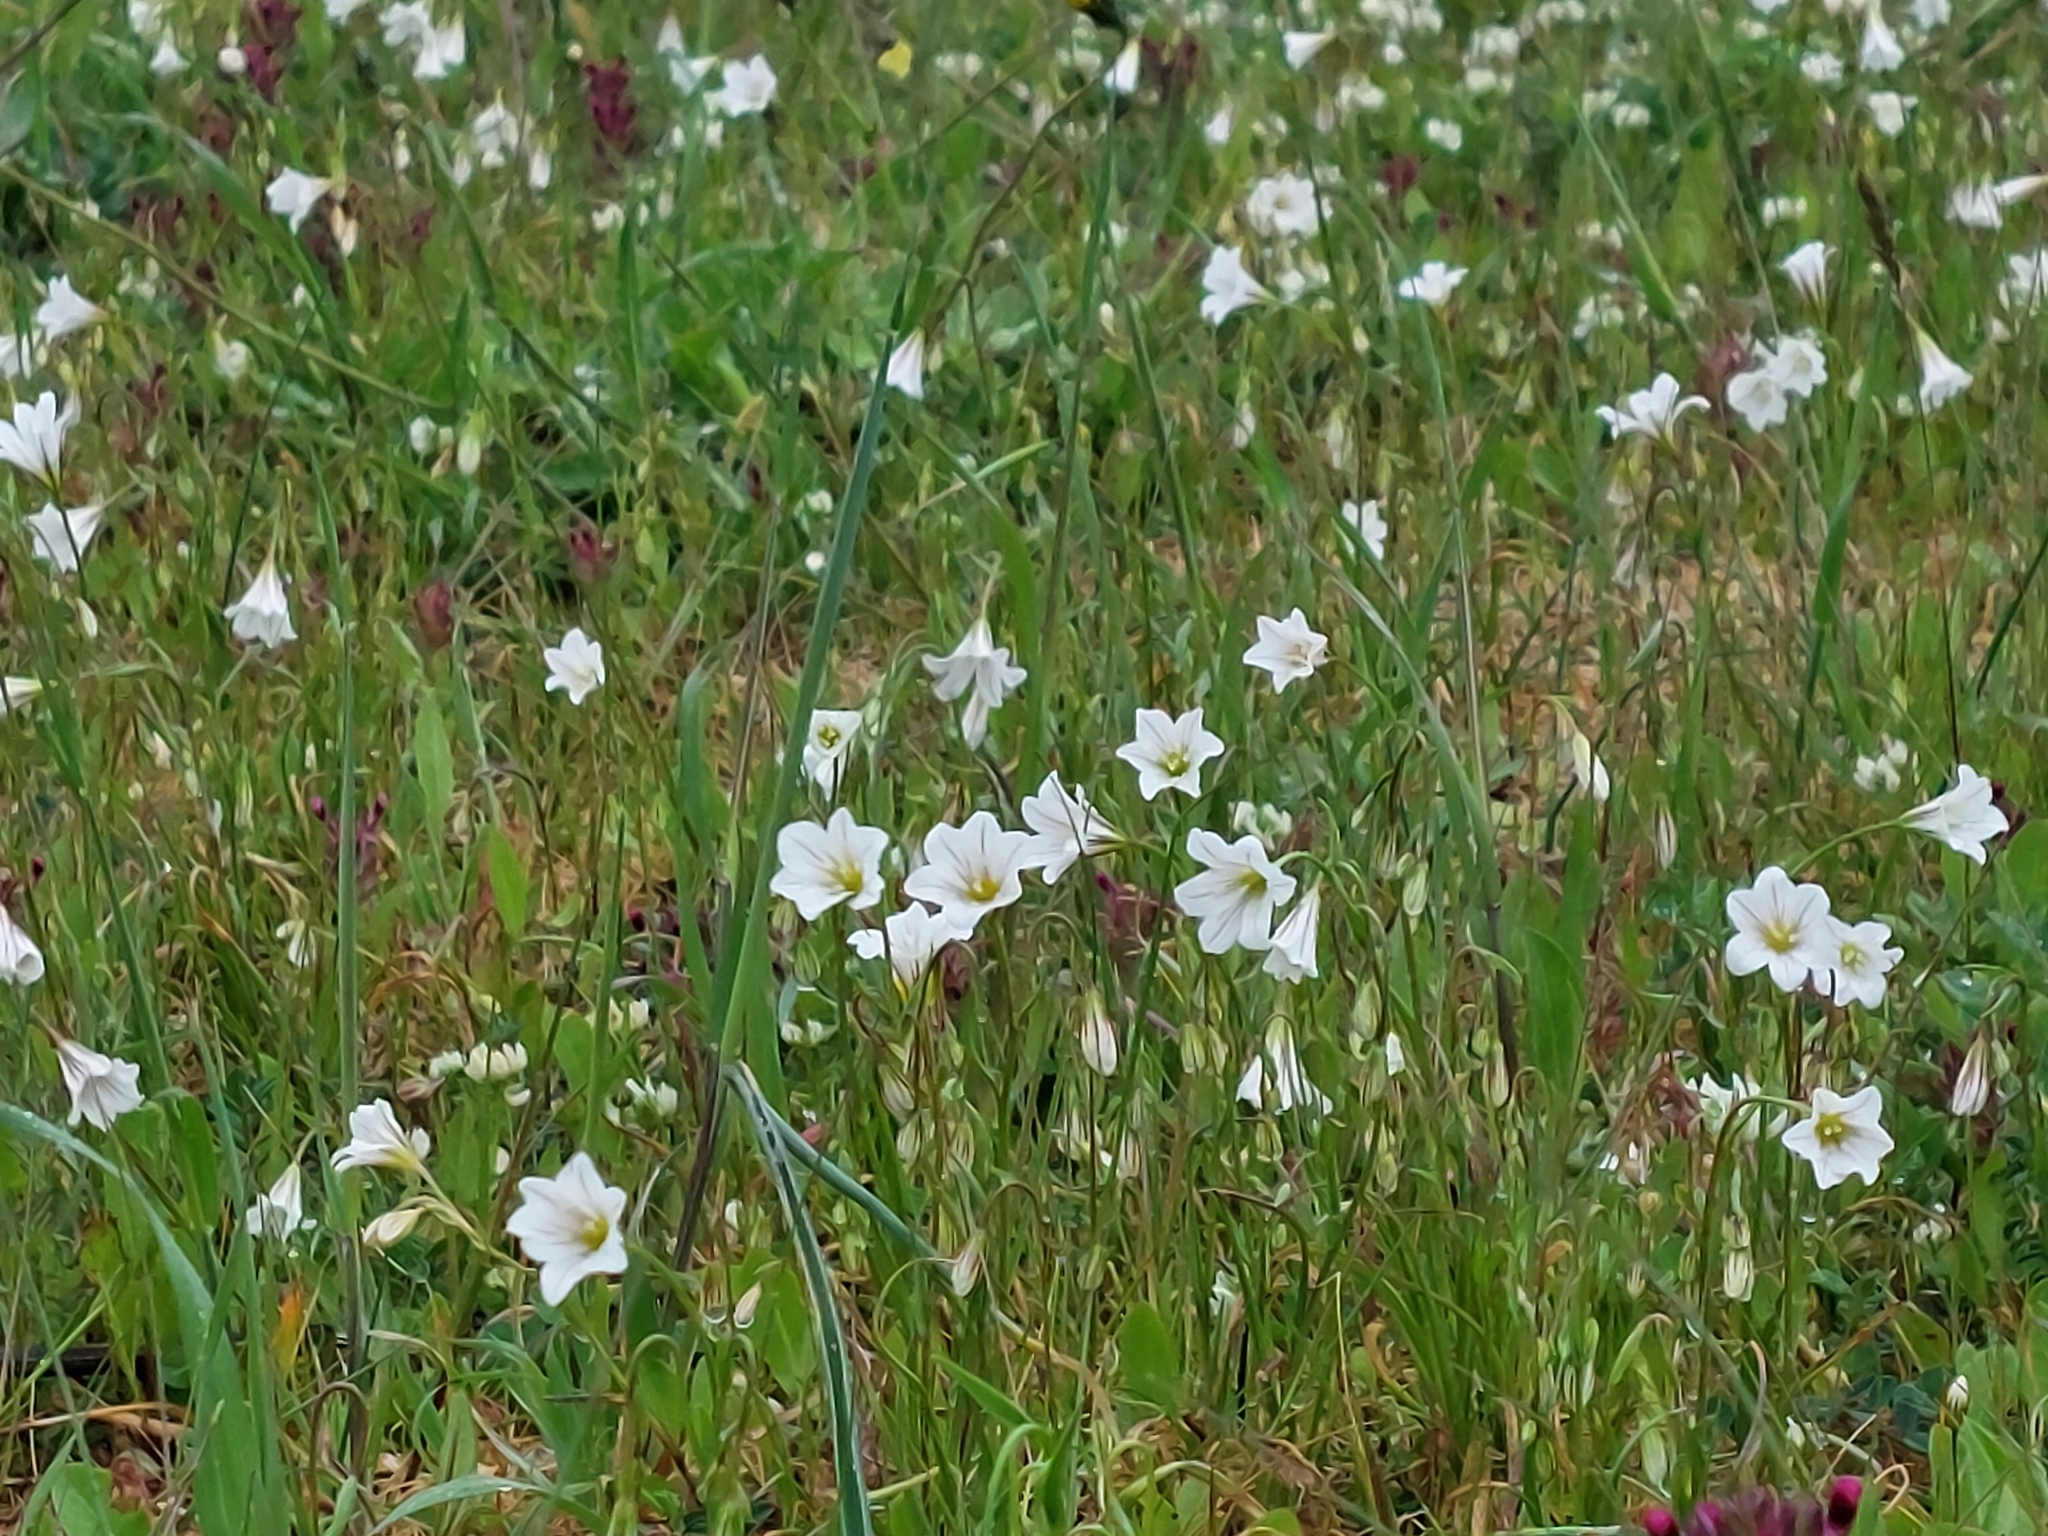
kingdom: Plantae
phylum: Tracheophyta
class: Liliopsida
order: Liliales
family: Liliaceae
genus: Gagea
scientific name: Gagea graeca
